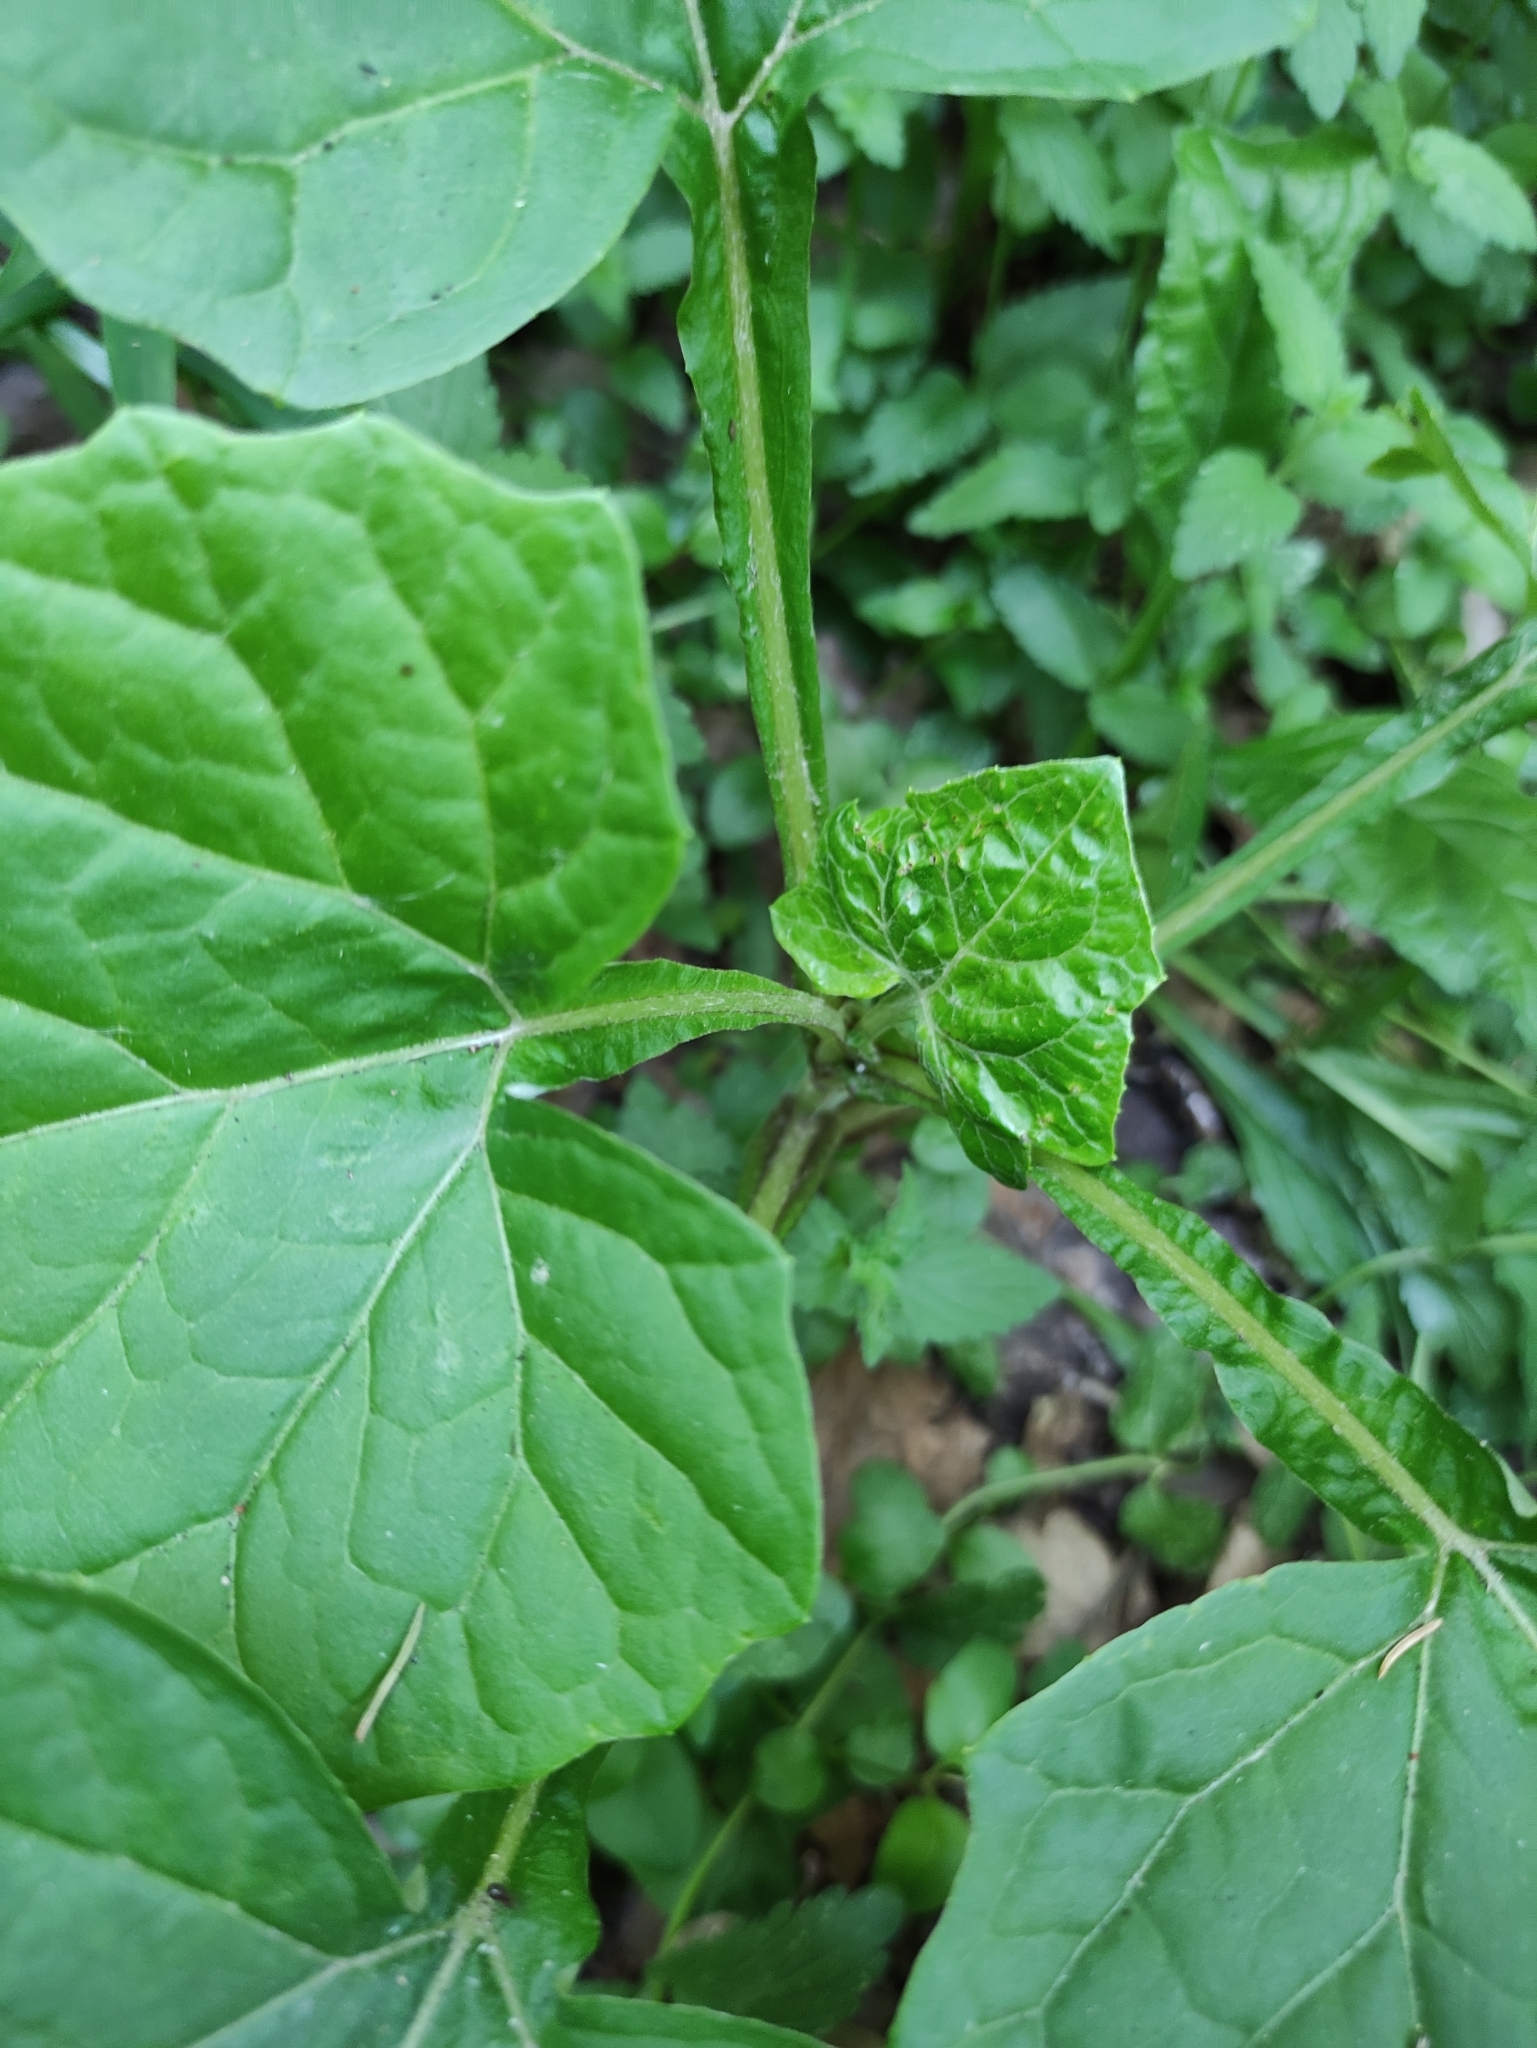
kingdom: Plantae
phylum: Tracheophyta
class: Magnoliopsida
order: Asterales
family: Asteraceae
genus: Adenocaulon
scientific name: Adenocaulon himalaicum
